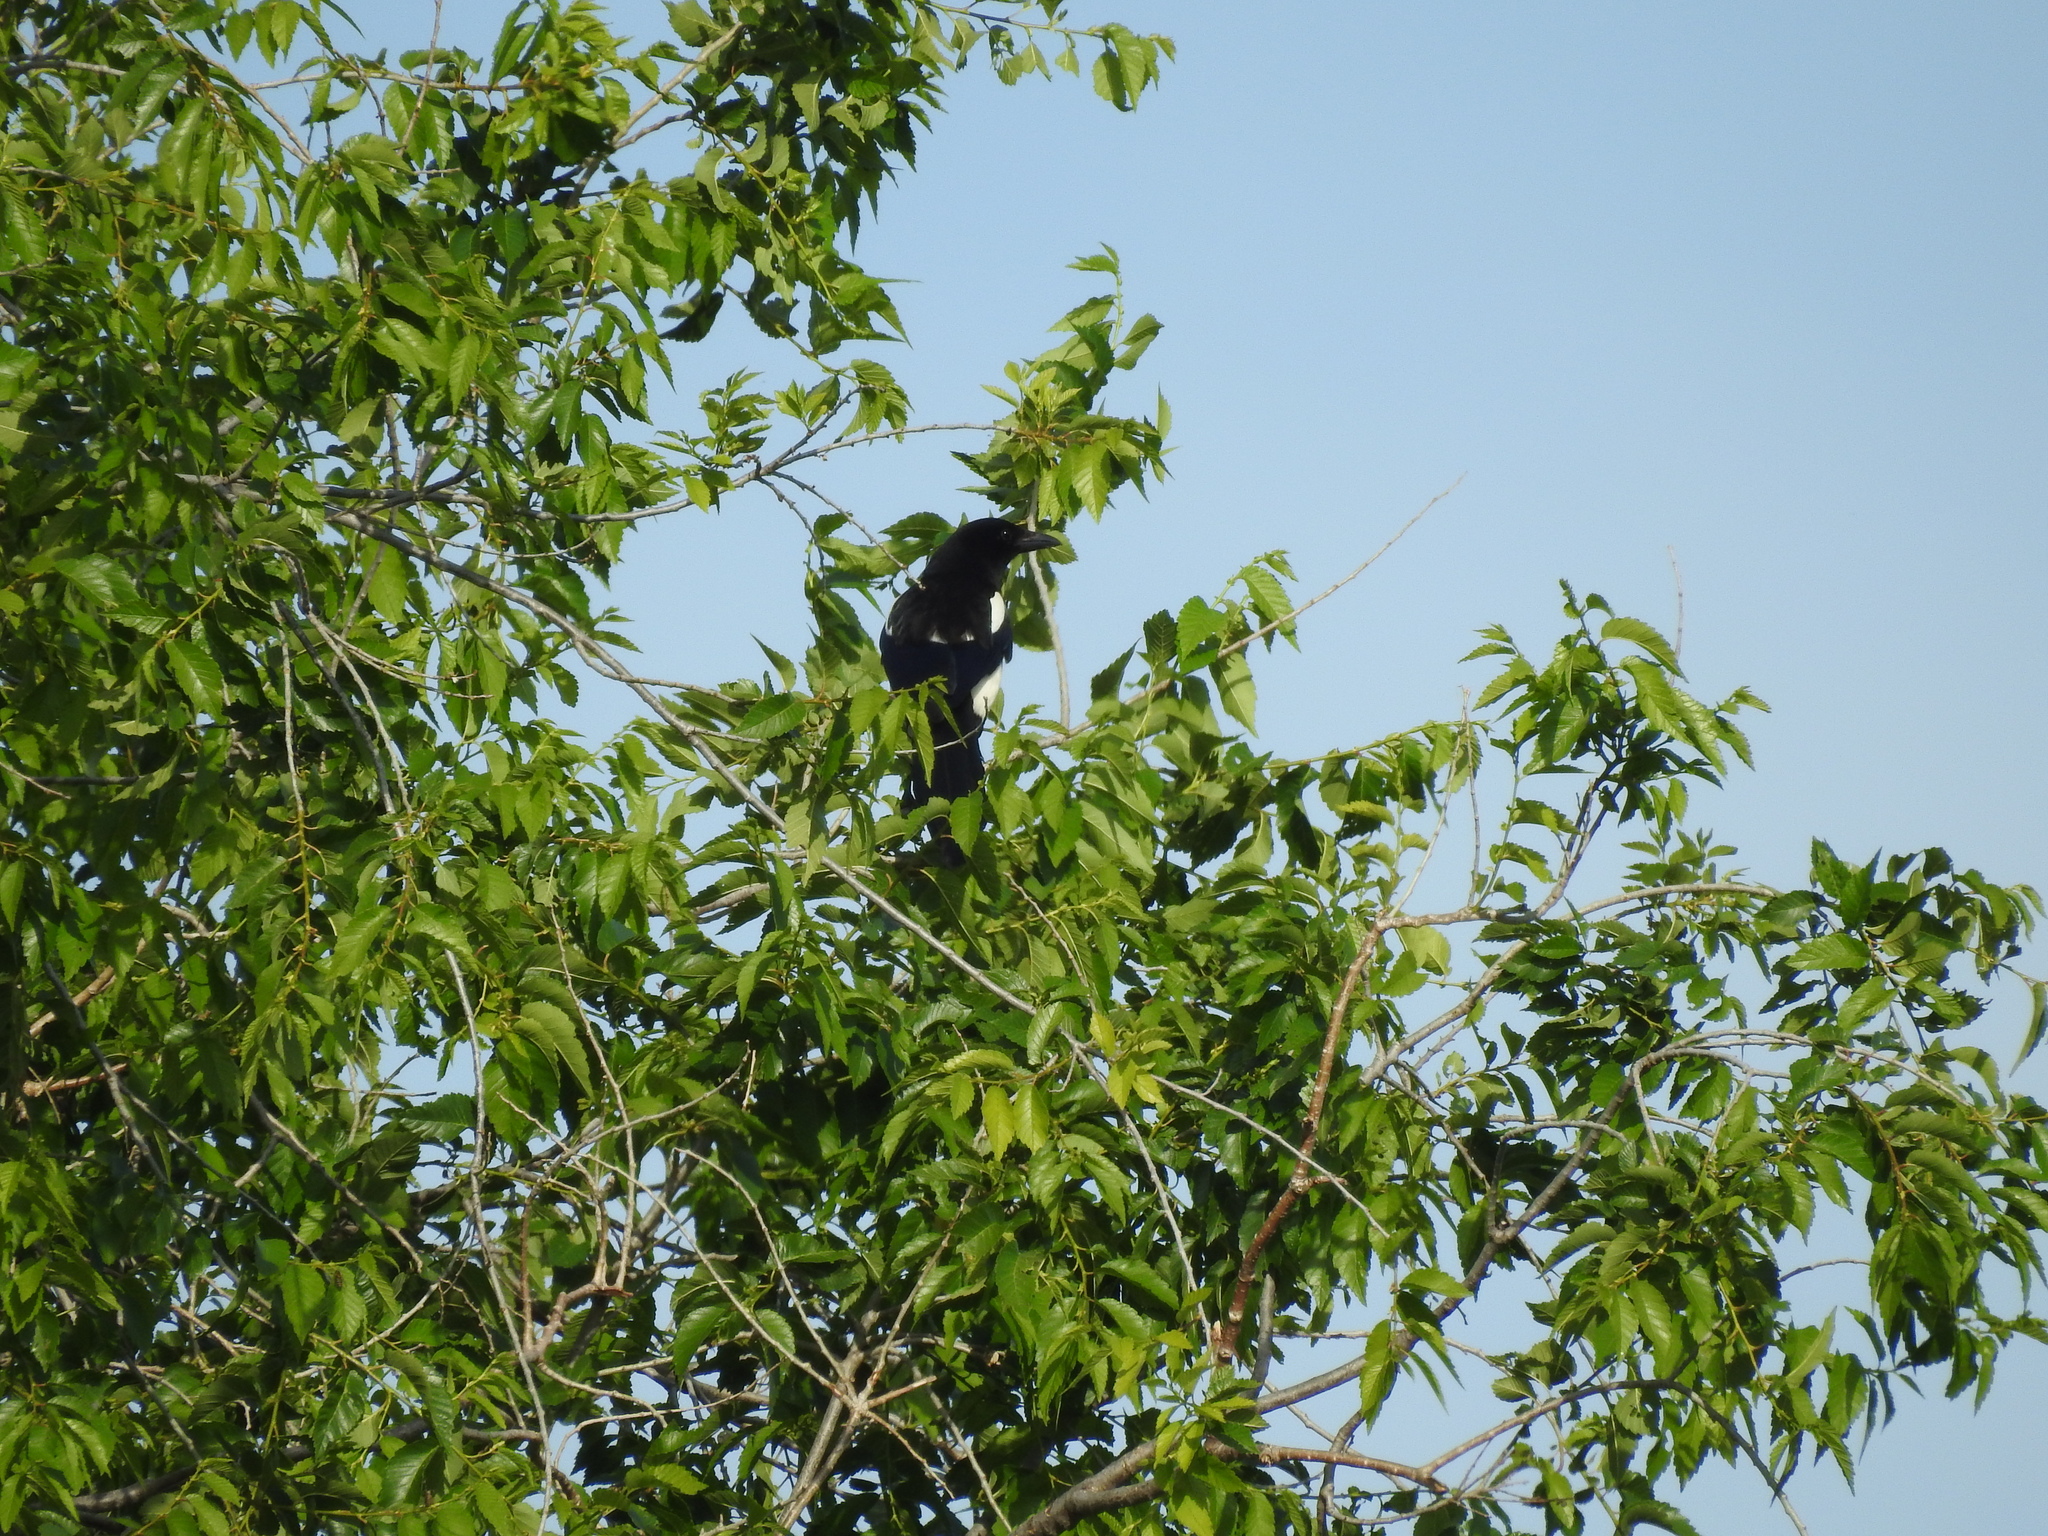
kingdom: Animalia
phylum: Chordata
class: Aves
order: Passeriformes
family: Corvidae
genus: Pica
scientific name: Pica pica
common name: Eurasian magpie
